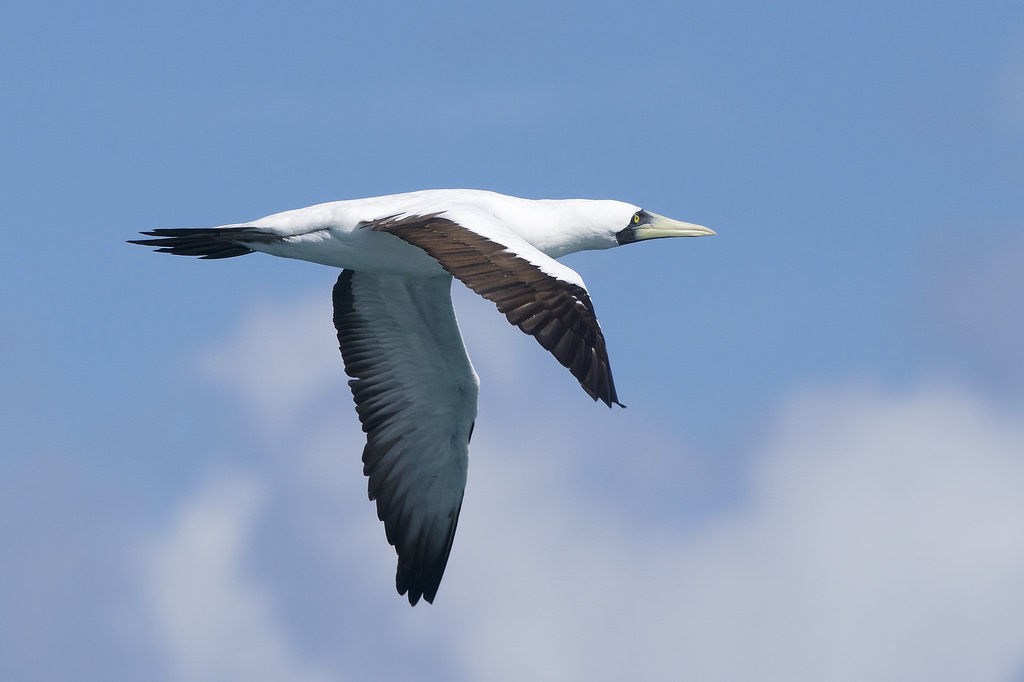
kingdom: Animalia
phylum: Chordata
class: Aves
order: Suliformes
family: Sulidae
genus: Sula
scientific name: Sula dactylatra
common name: Masked booby
